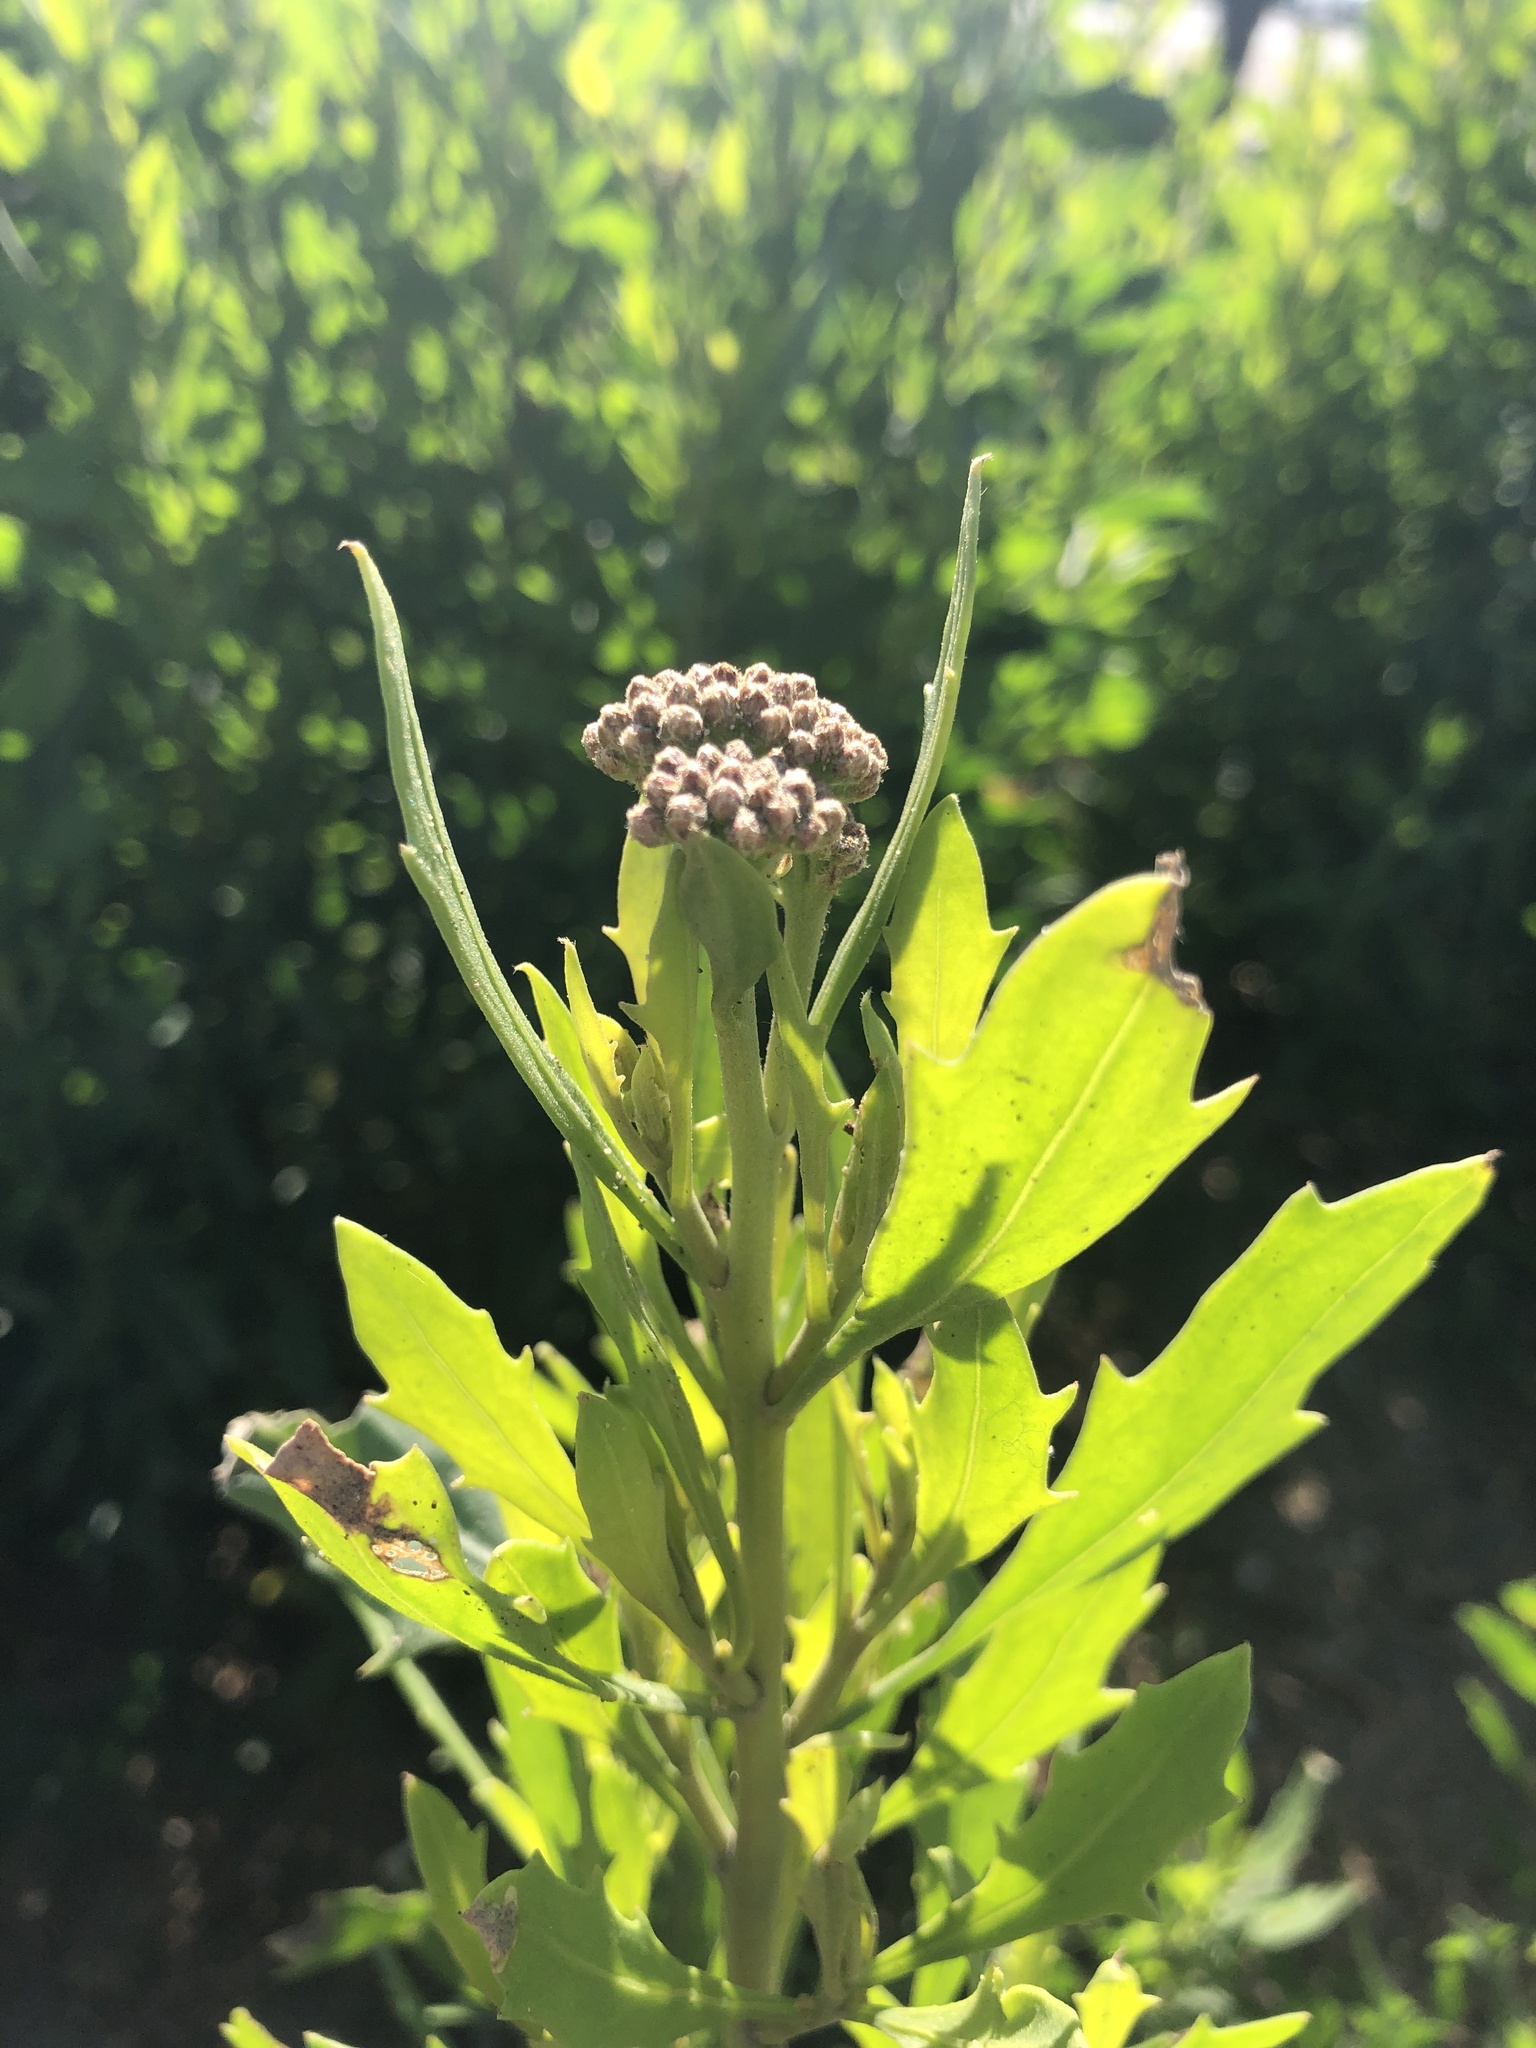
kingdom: Plantae
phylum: Tracheophyta
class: Magnoliopsida
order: Asterales
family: Asteraceae
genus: Tessaria
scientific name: Tessaria absinthioides
